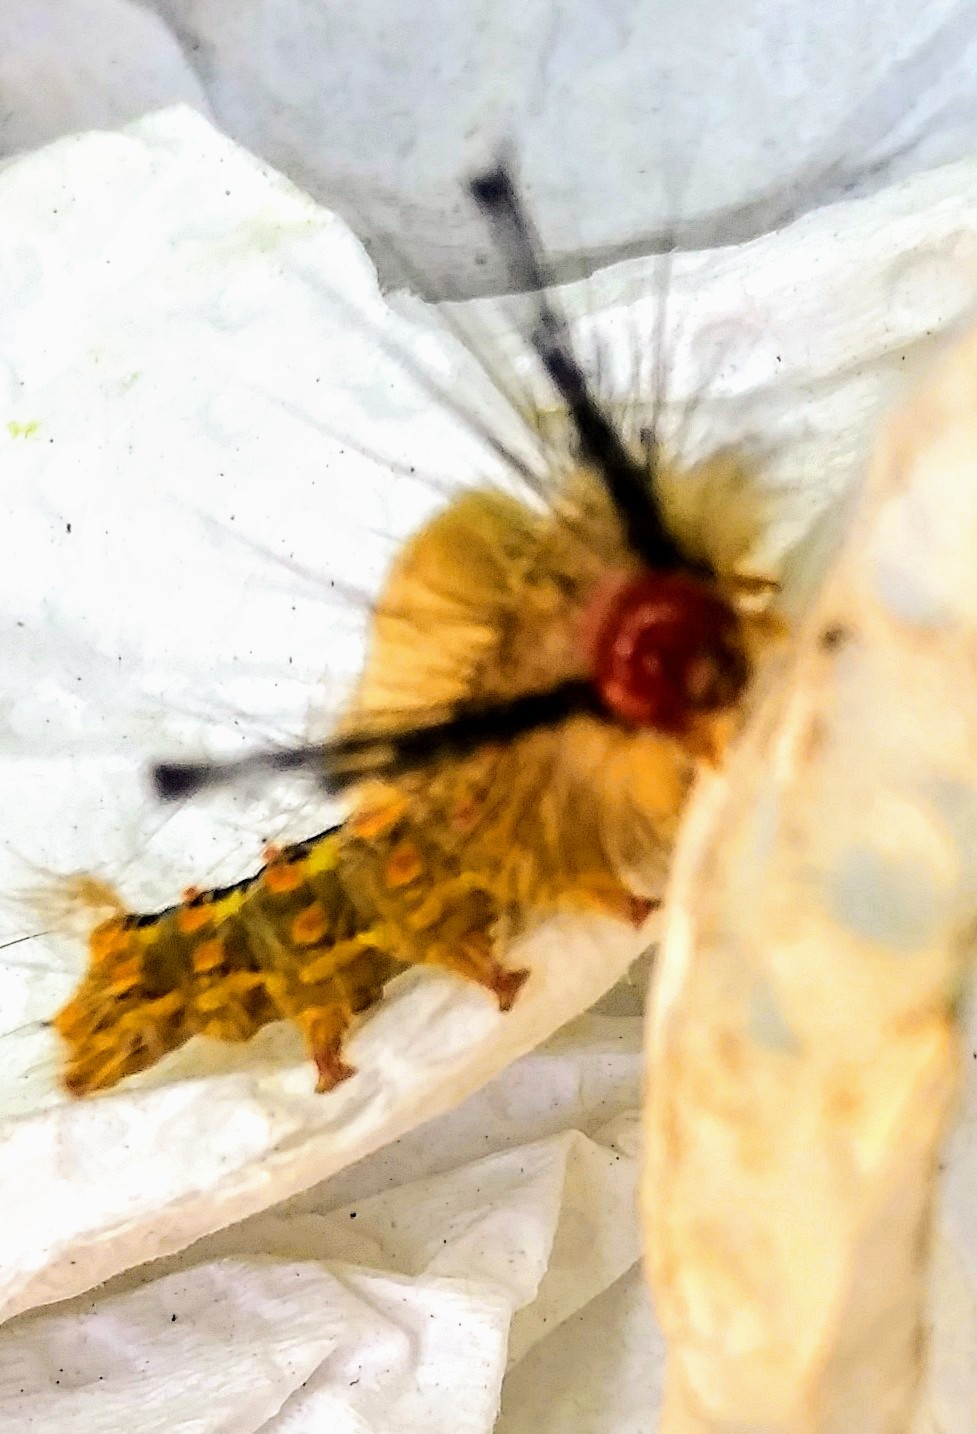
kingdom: Animalia
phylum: Arthropoda
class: Insecta
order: Lepidoptera
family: Erebidae
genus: Orgyia
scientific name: Orgyia detrita
